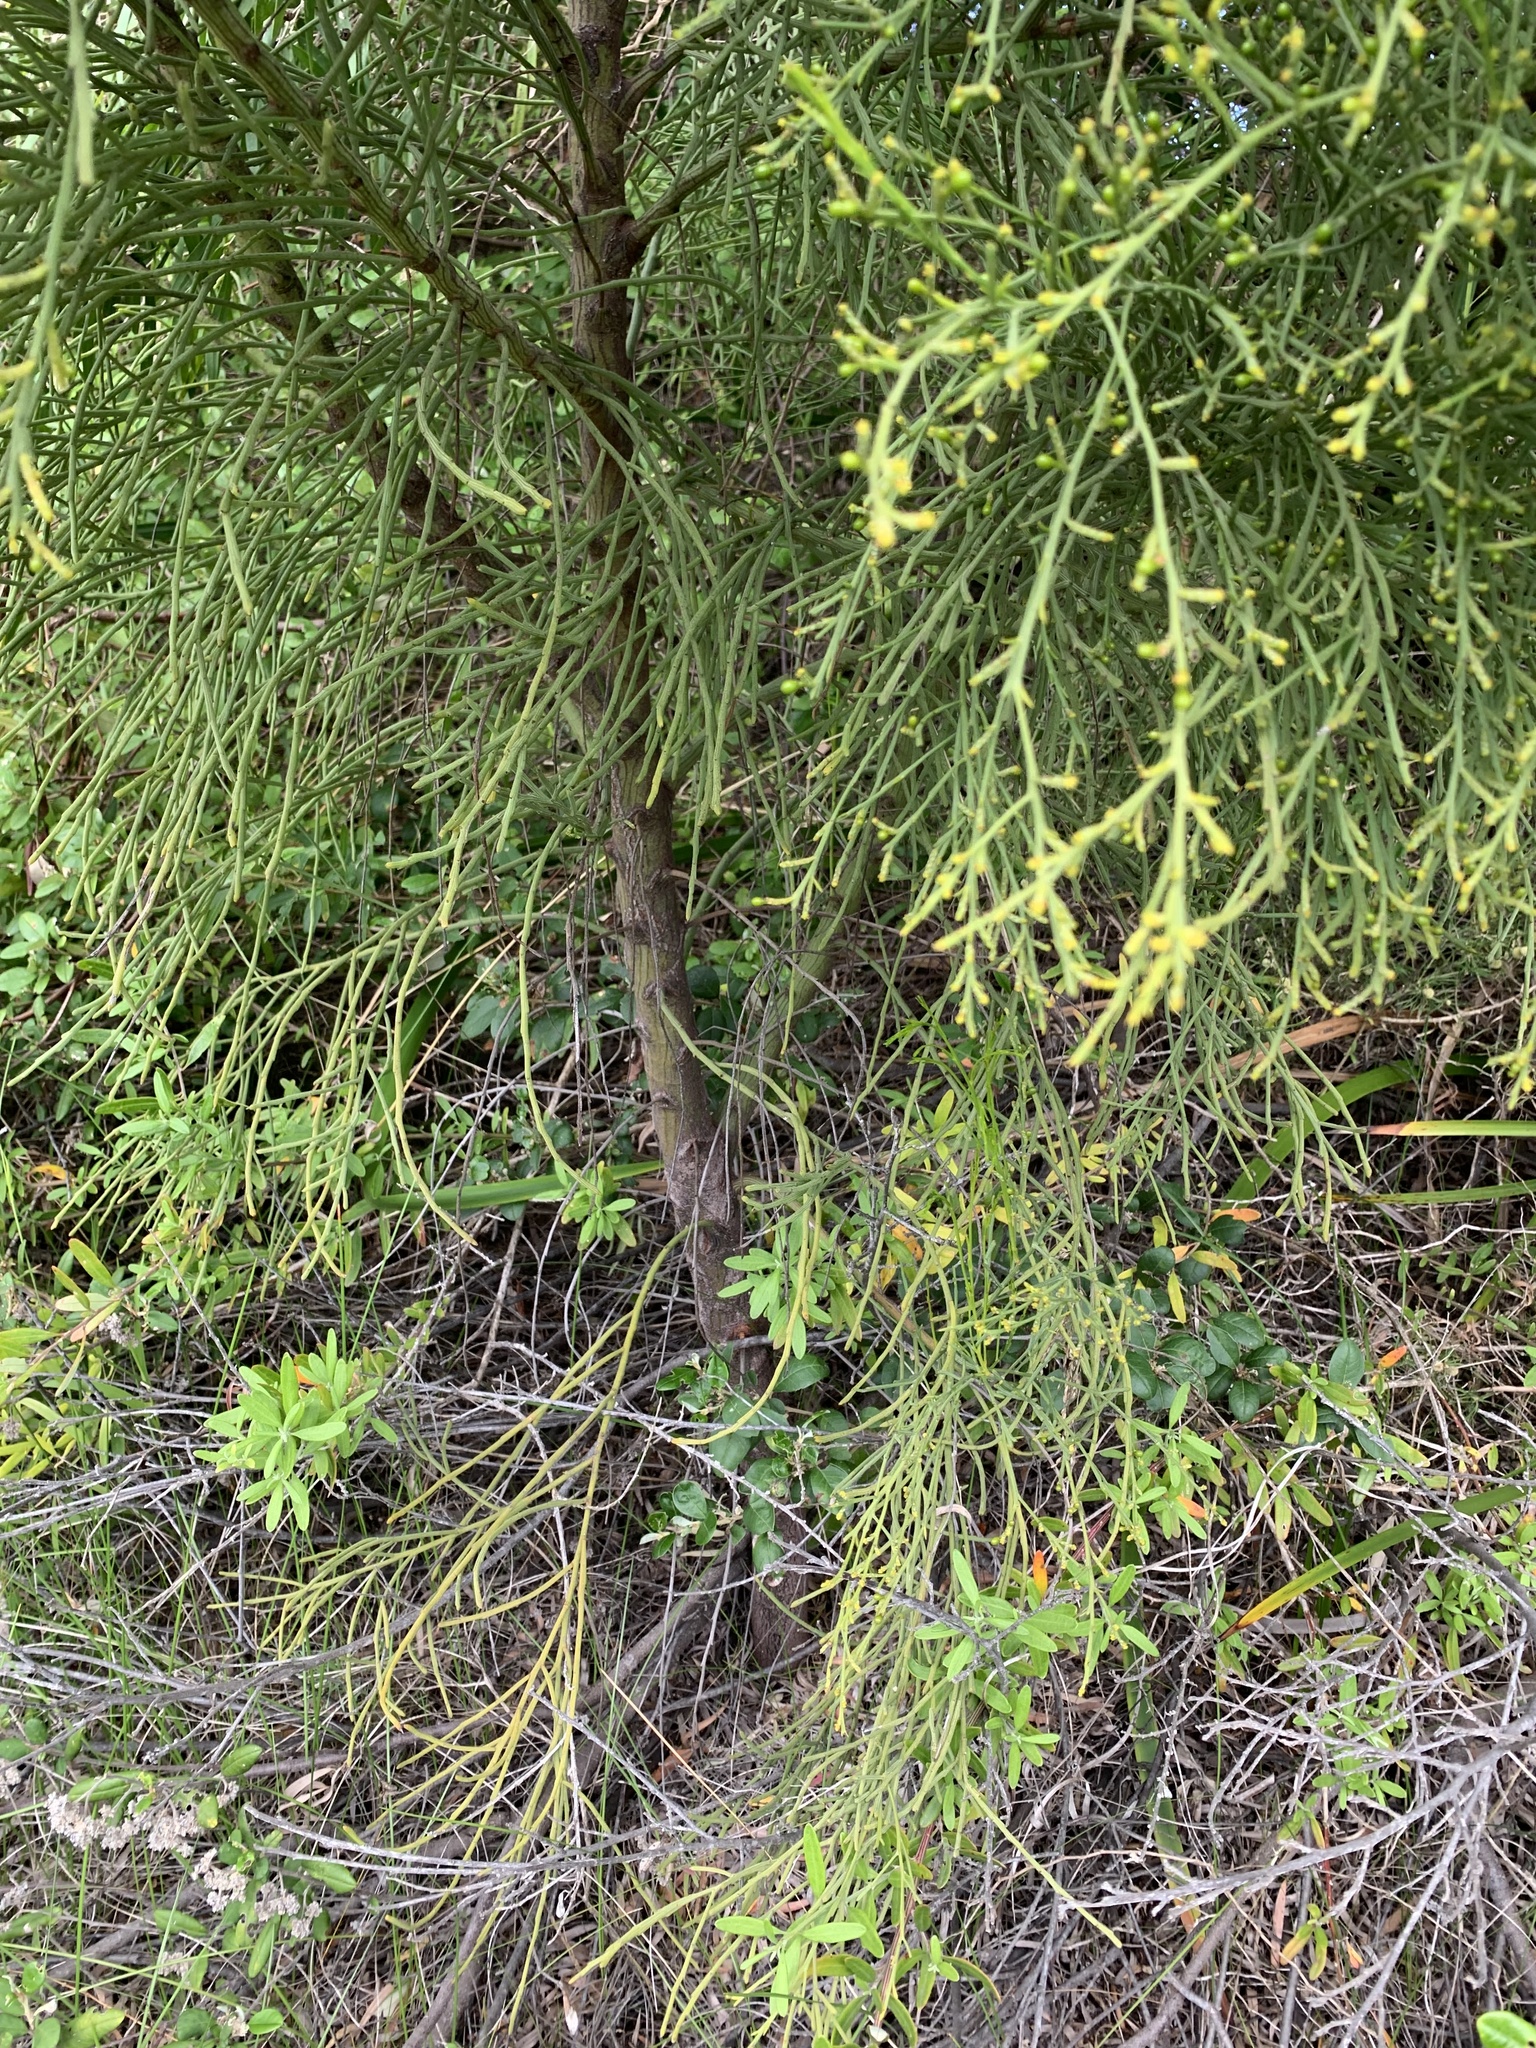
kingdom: Plantae
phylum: Tracheophyta
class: Magnoliopsida
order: Santalales
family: Santalaceae
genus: Exocarpos
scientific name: Exocarpos sparteus
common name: Broom ballart
